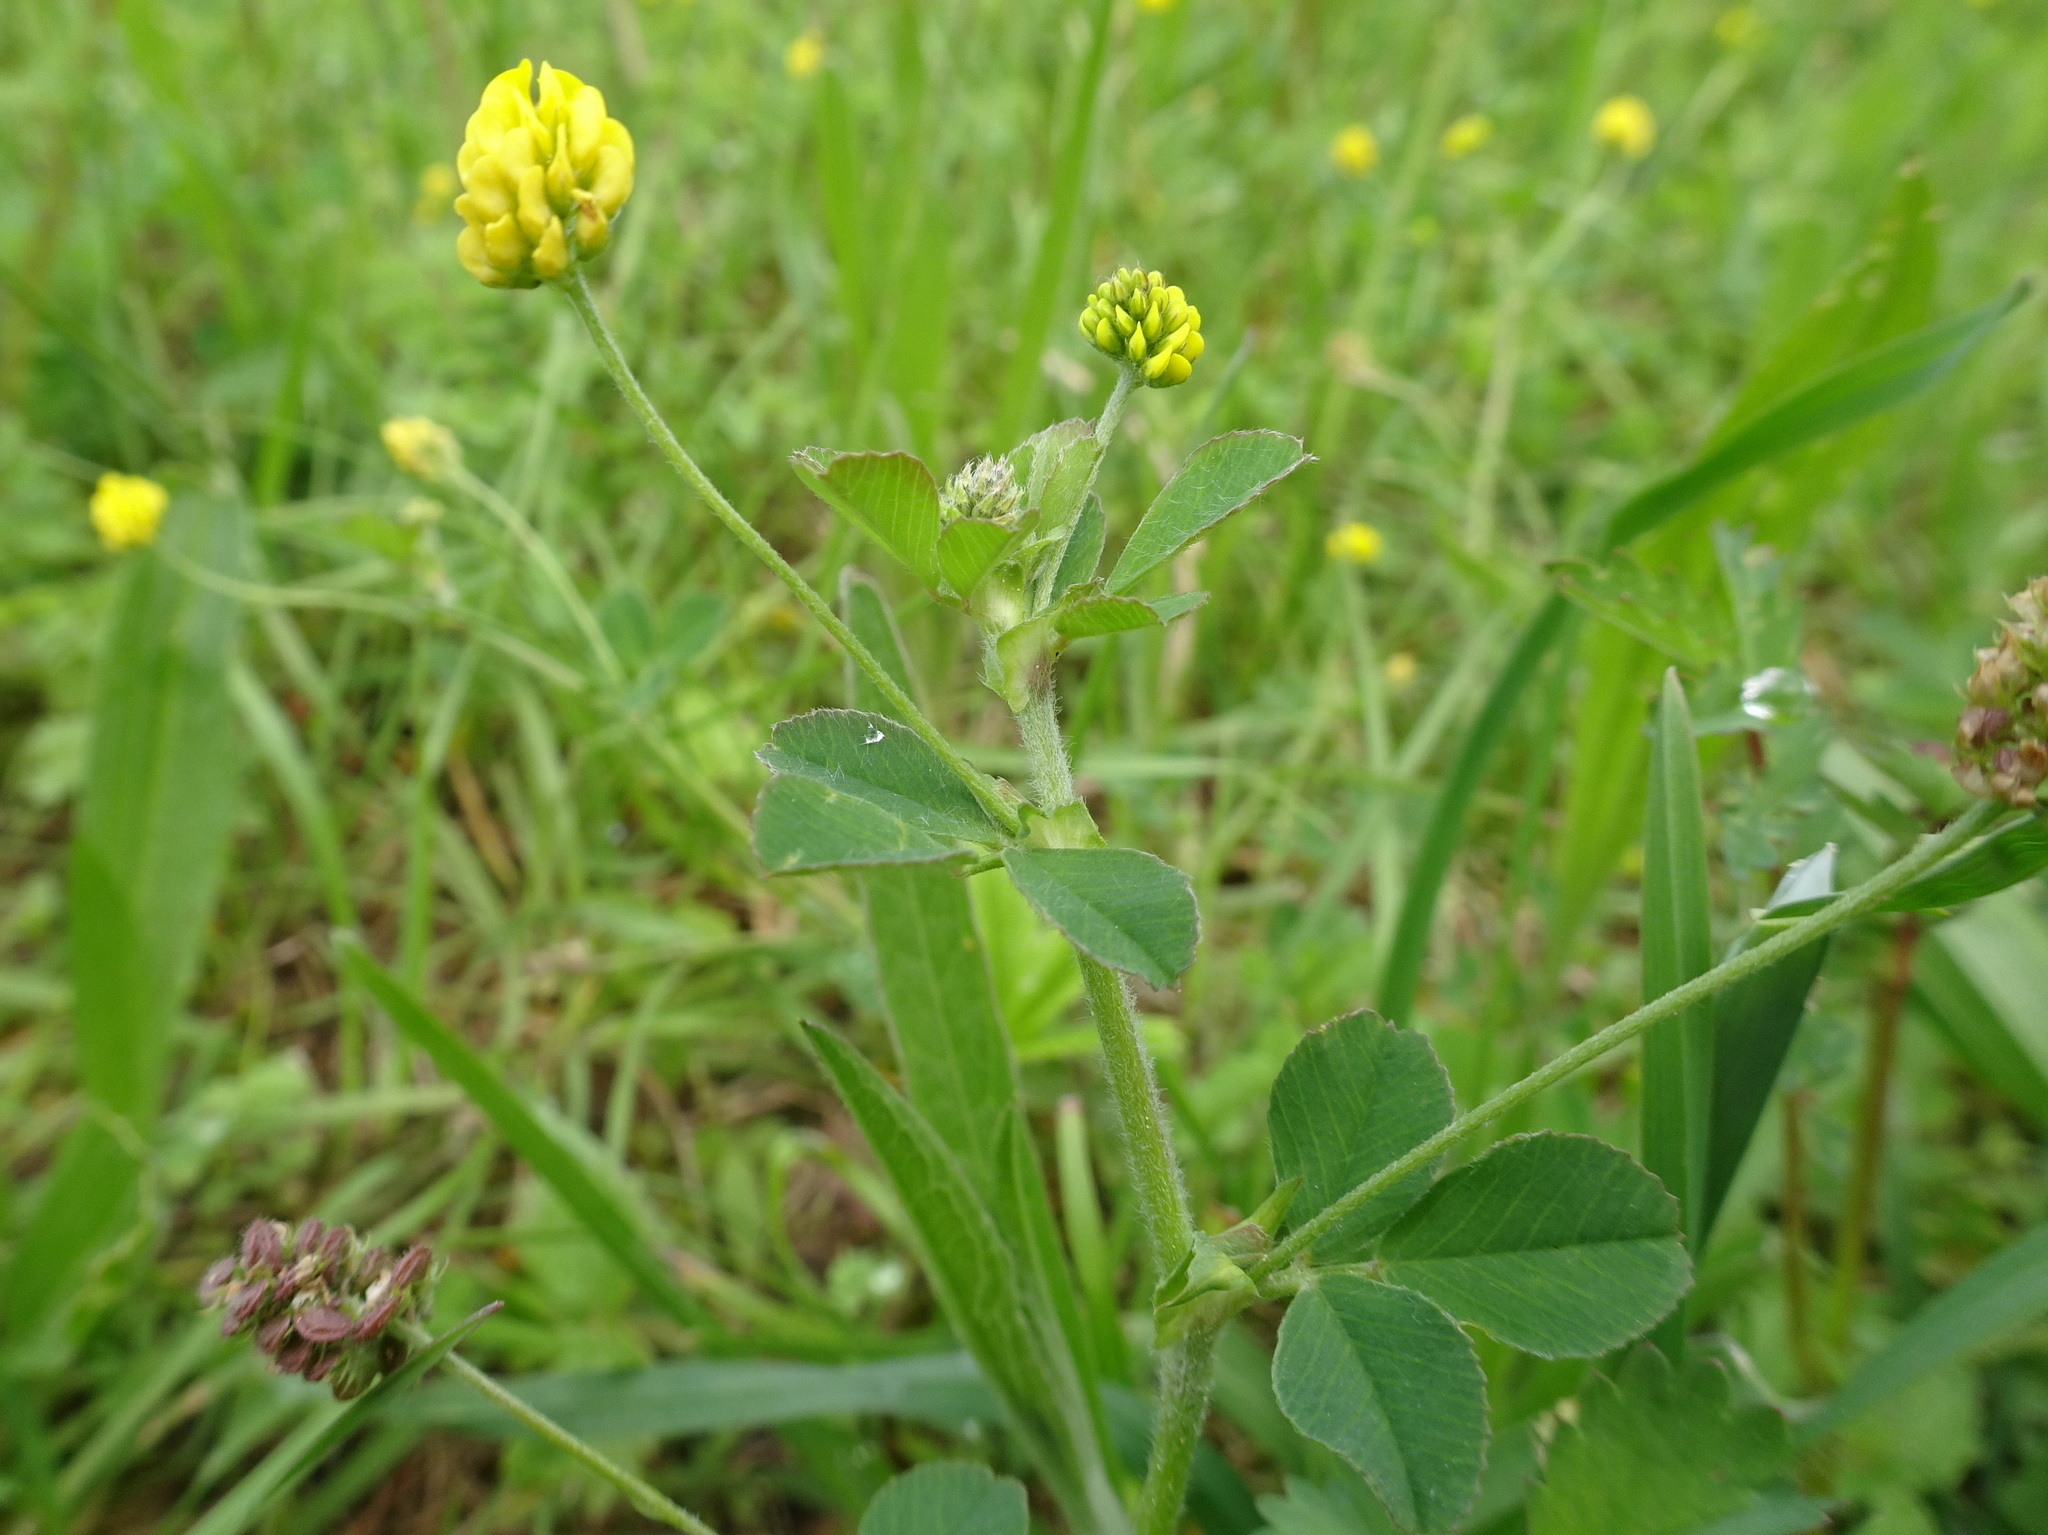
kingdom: Plantae
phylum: Tracheophyta
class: Magnoliopsida
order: Fabales
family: Fabaceae
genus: Medicago
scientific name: Medicago lupulina
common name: Black medick
